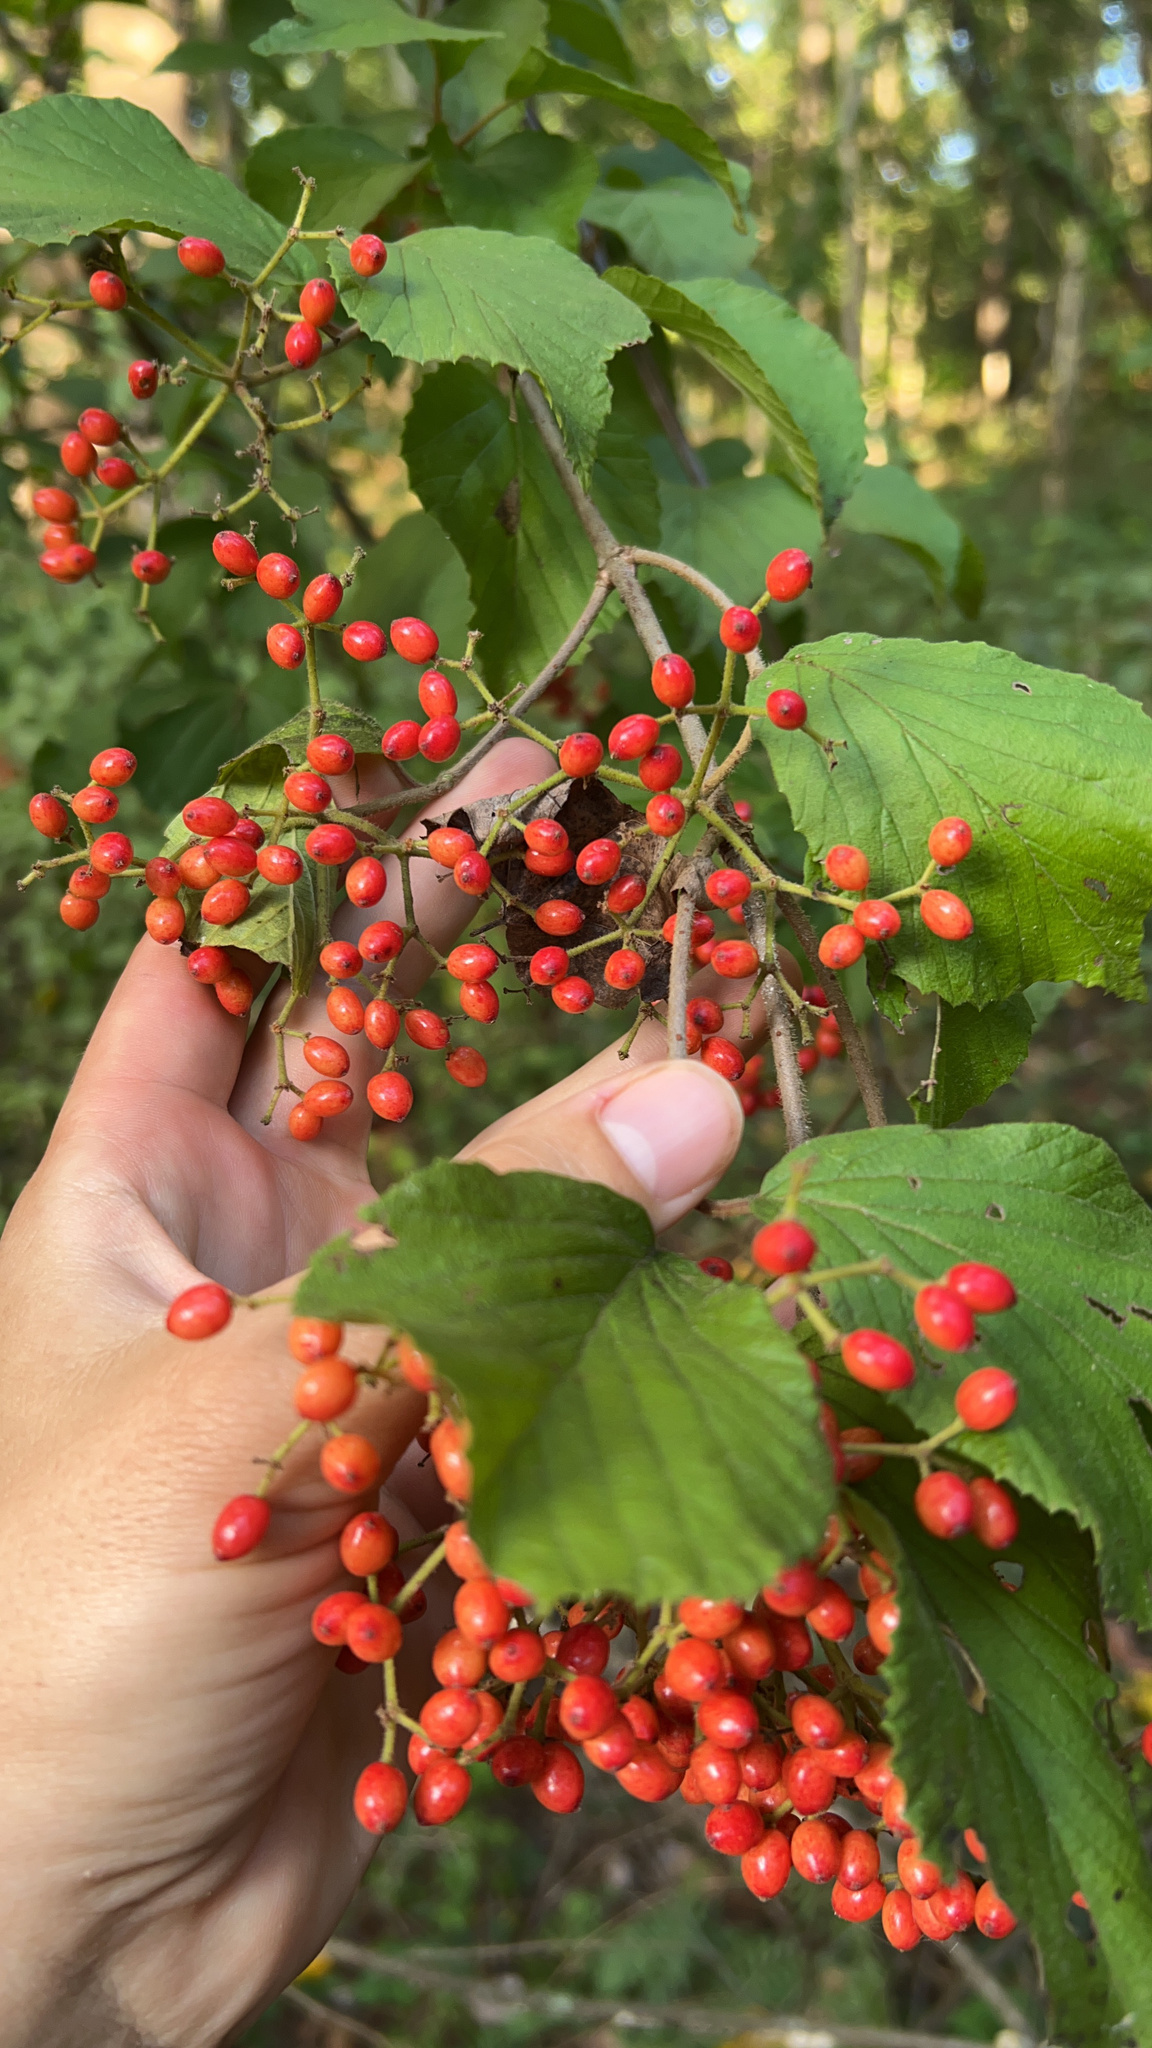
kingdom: Plantae
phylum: Tracheophyta
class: Magnoliopsida
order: Dipsacales
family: Viburnaceae
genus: Viburnum
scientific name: Viburnum dilatatum
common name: Linden arrowwood
